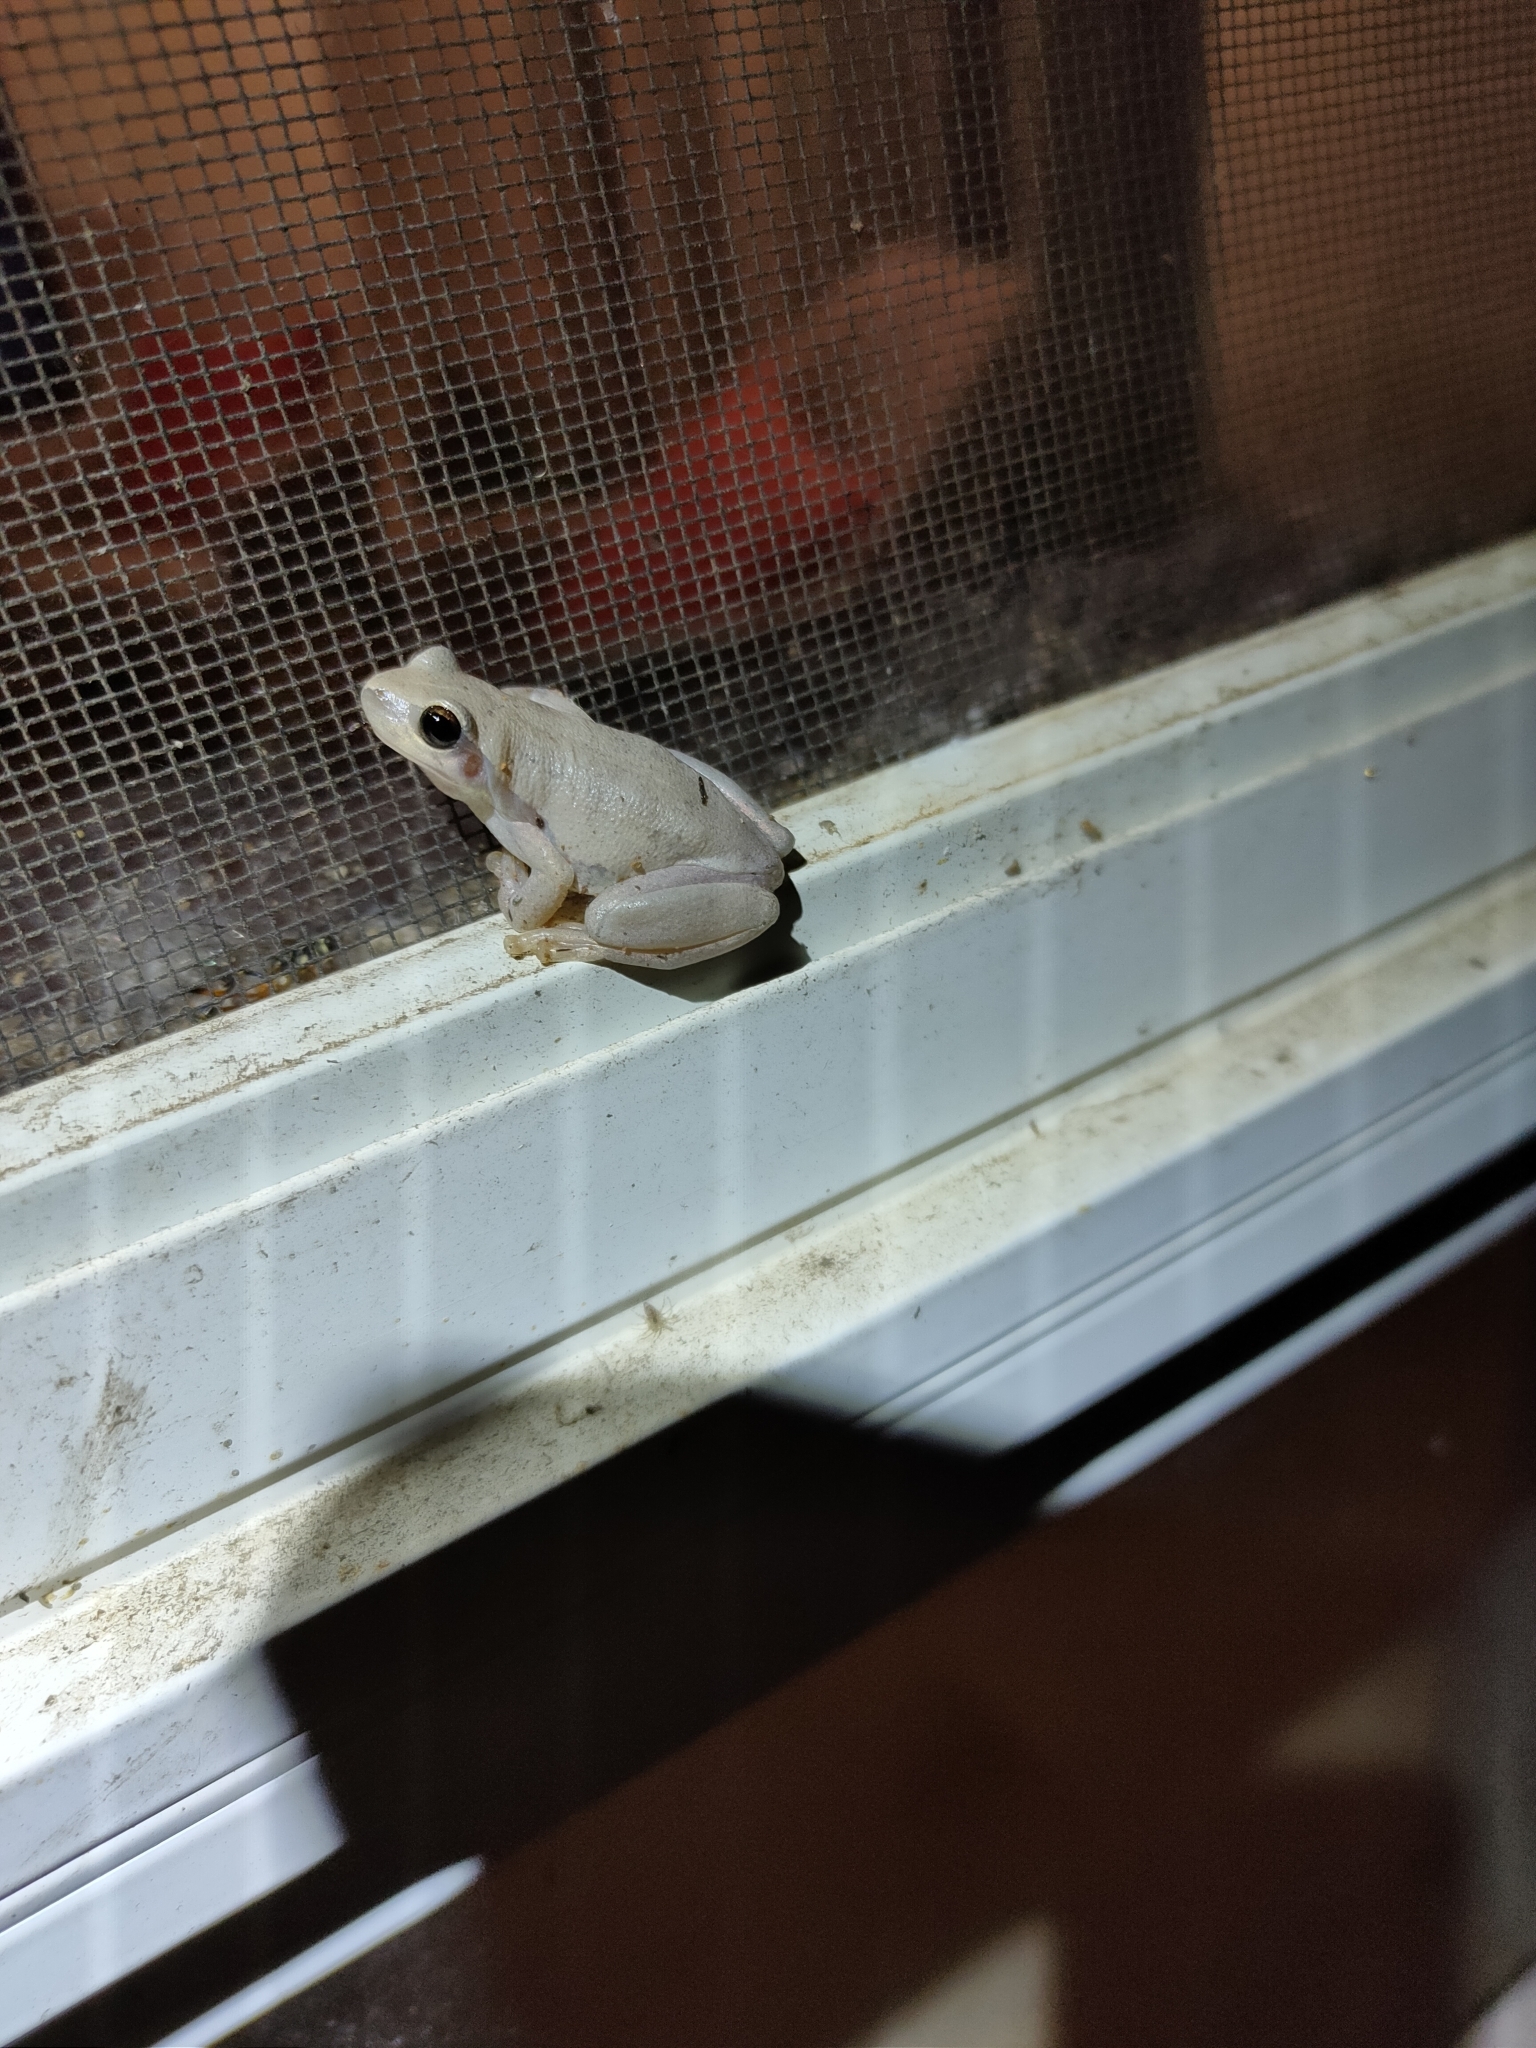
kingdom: Animalia
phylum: Chordata
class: Amphibia
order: Anura
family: Pelodryadidae
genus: Litoria
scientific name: Litoria rubella
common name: Desert tree frog
